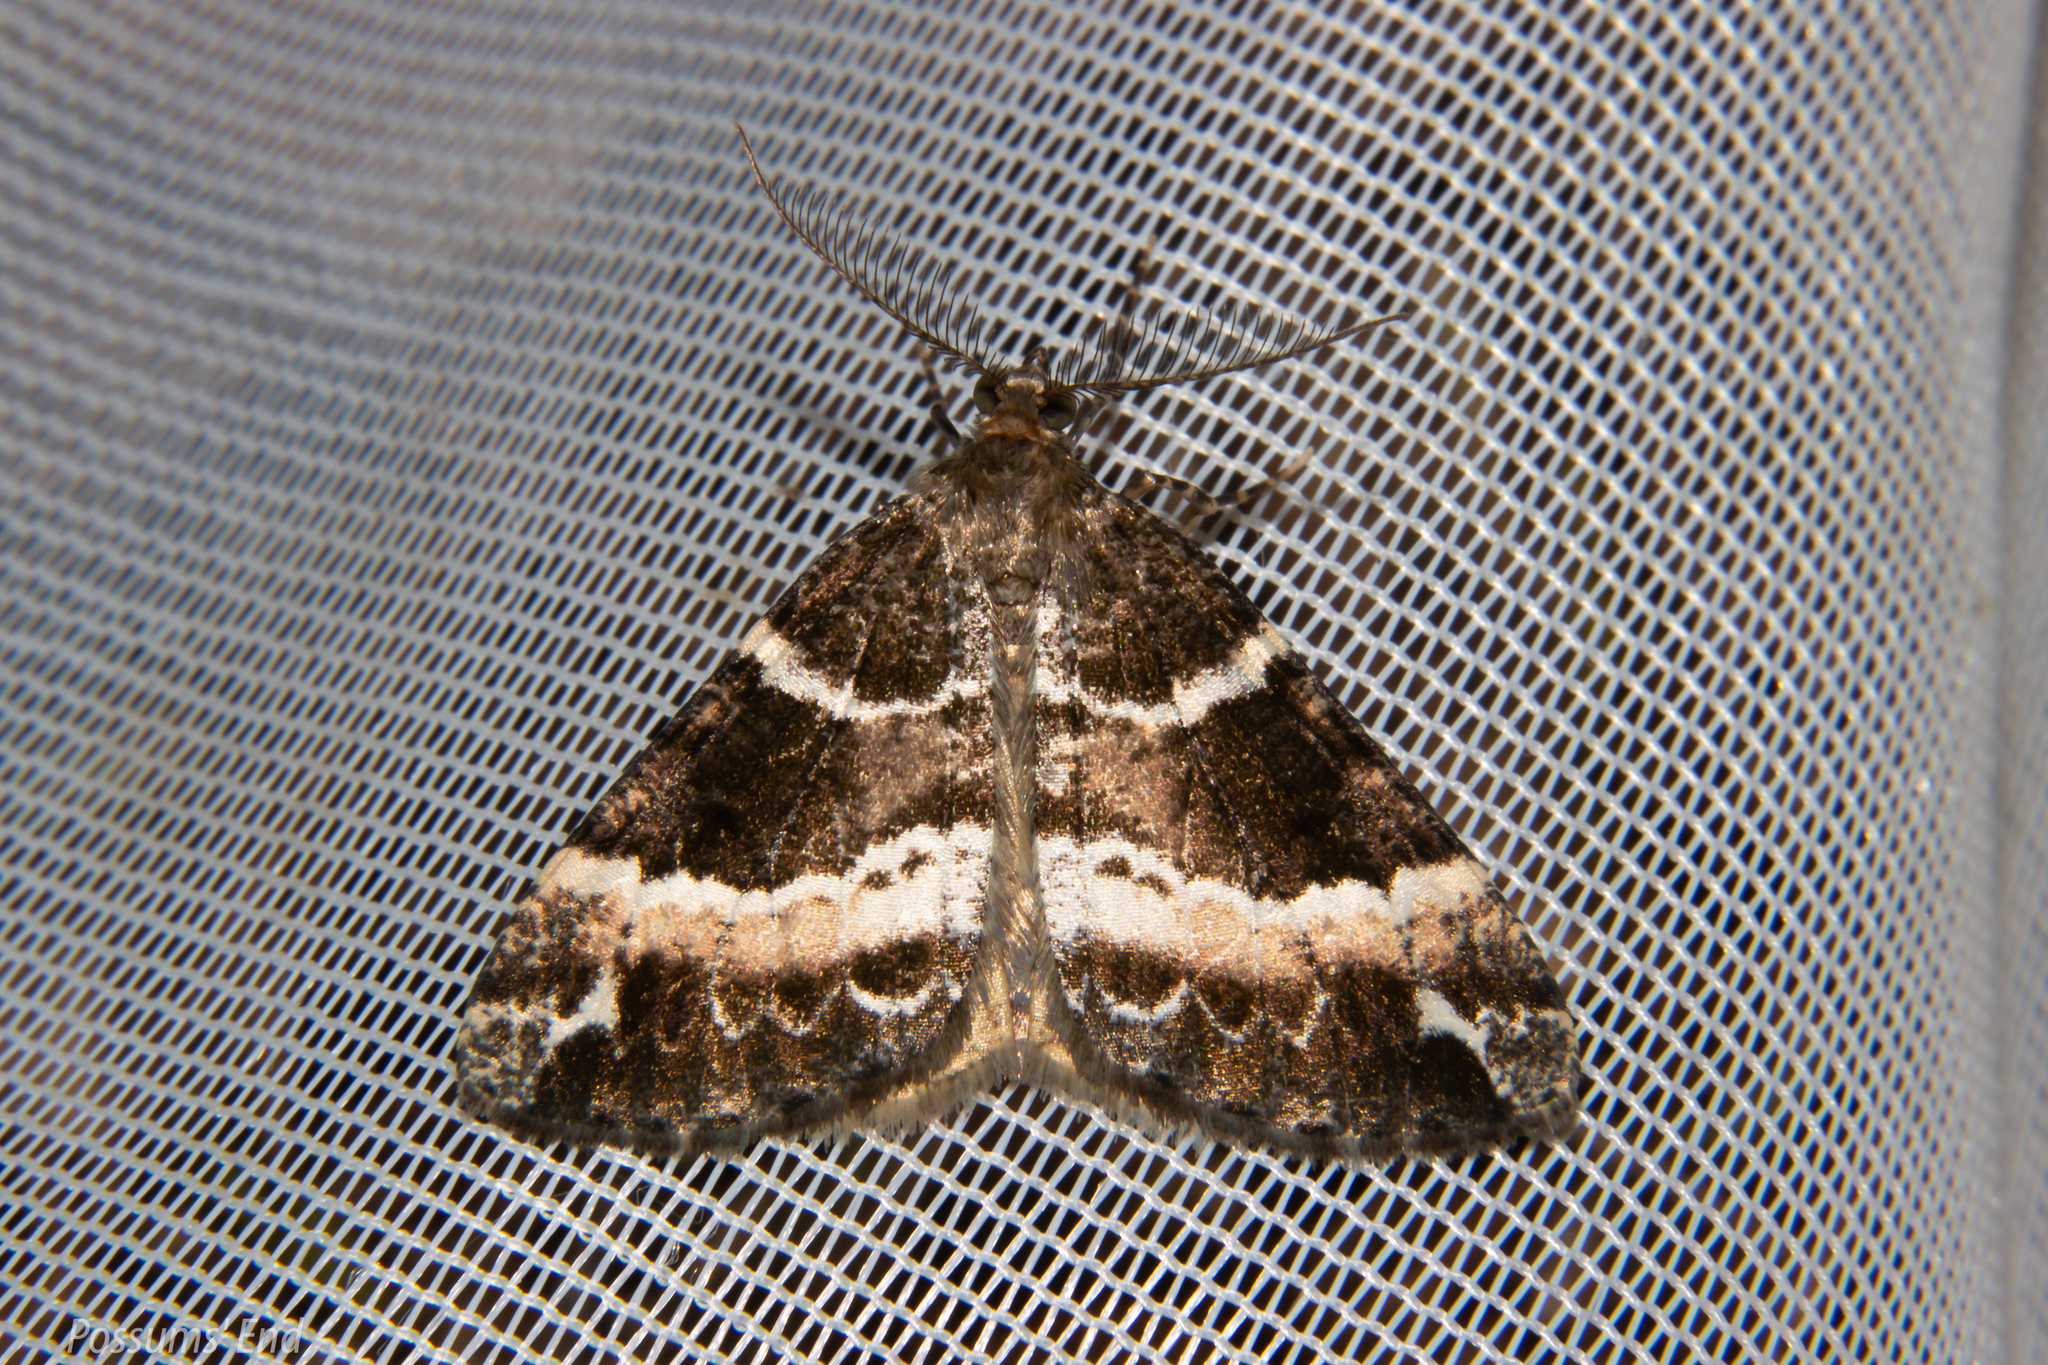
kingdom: Animalia
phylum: Arthropoda
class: Insecta
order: Lepidoptera
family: Geometridae
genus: Pseudocoremia
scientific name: Pseudocoremia
